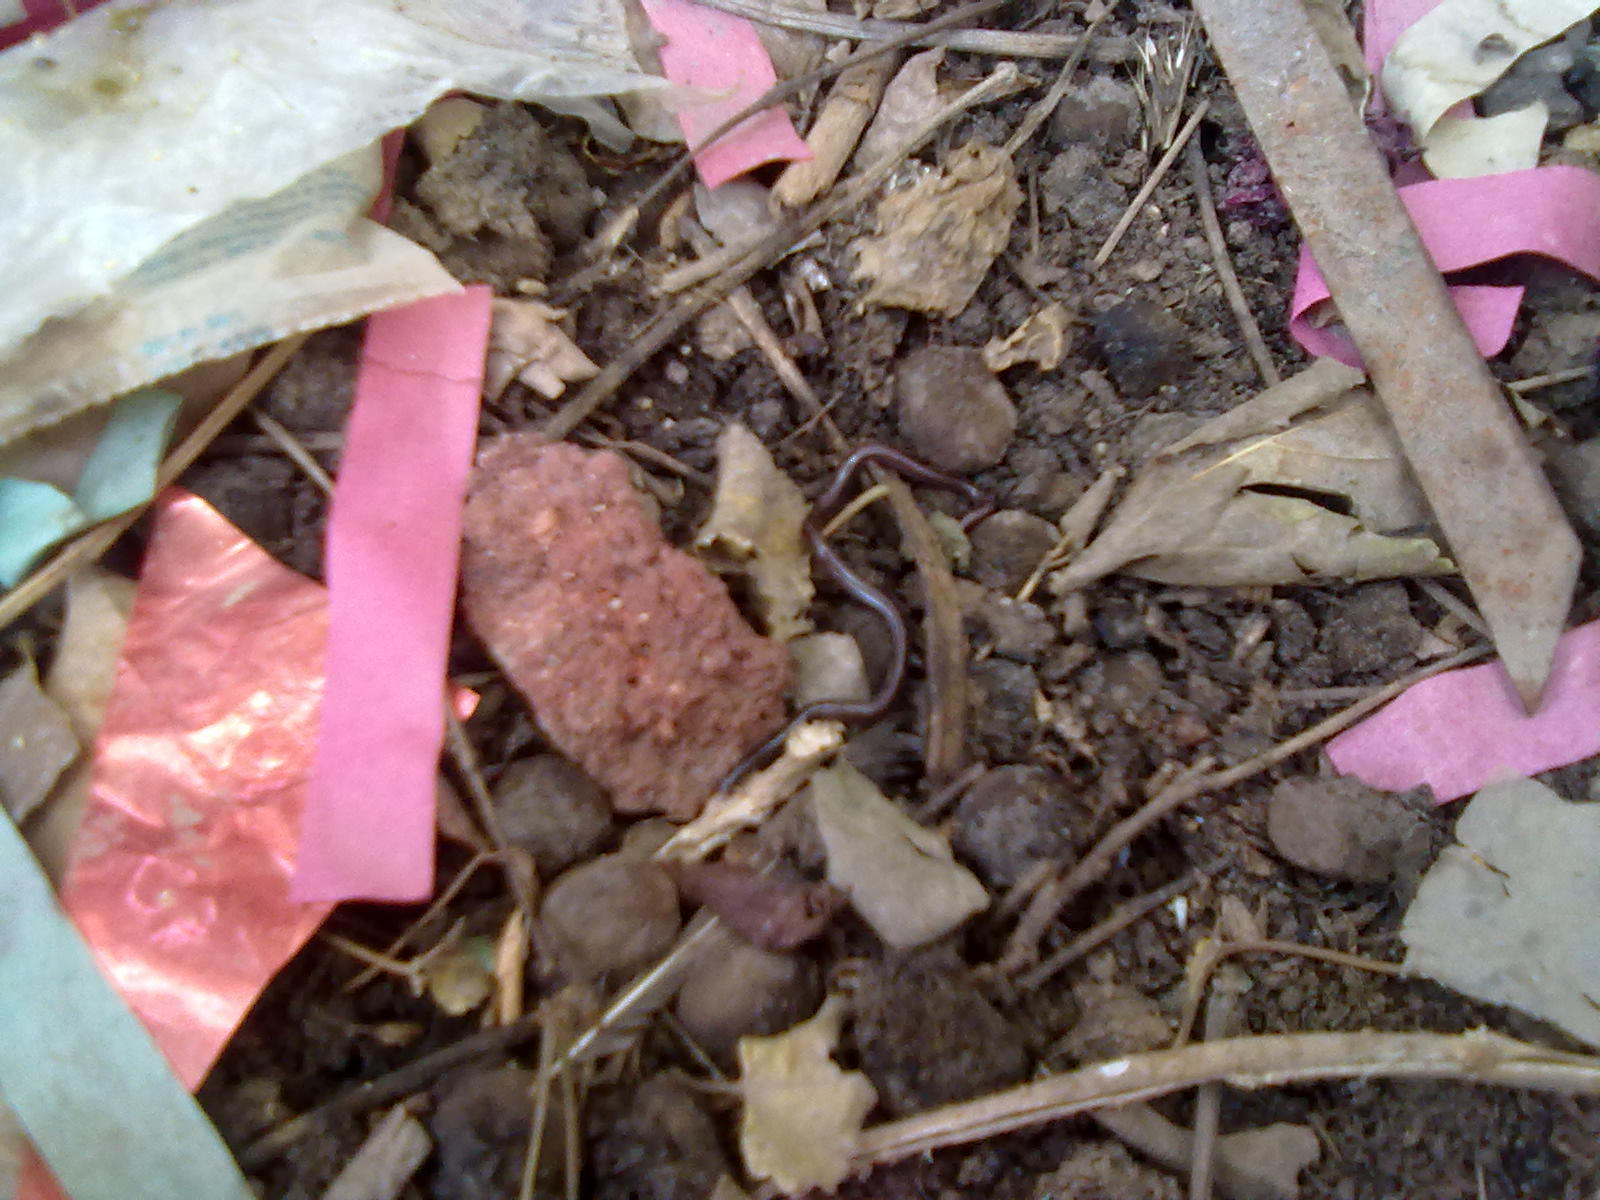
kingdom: Animalia
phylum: Chordata
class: Squamata
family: Typhlopidae
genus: Indotyphlops
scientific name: Indotyphlops braminus
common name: Brahminy blindsnake
